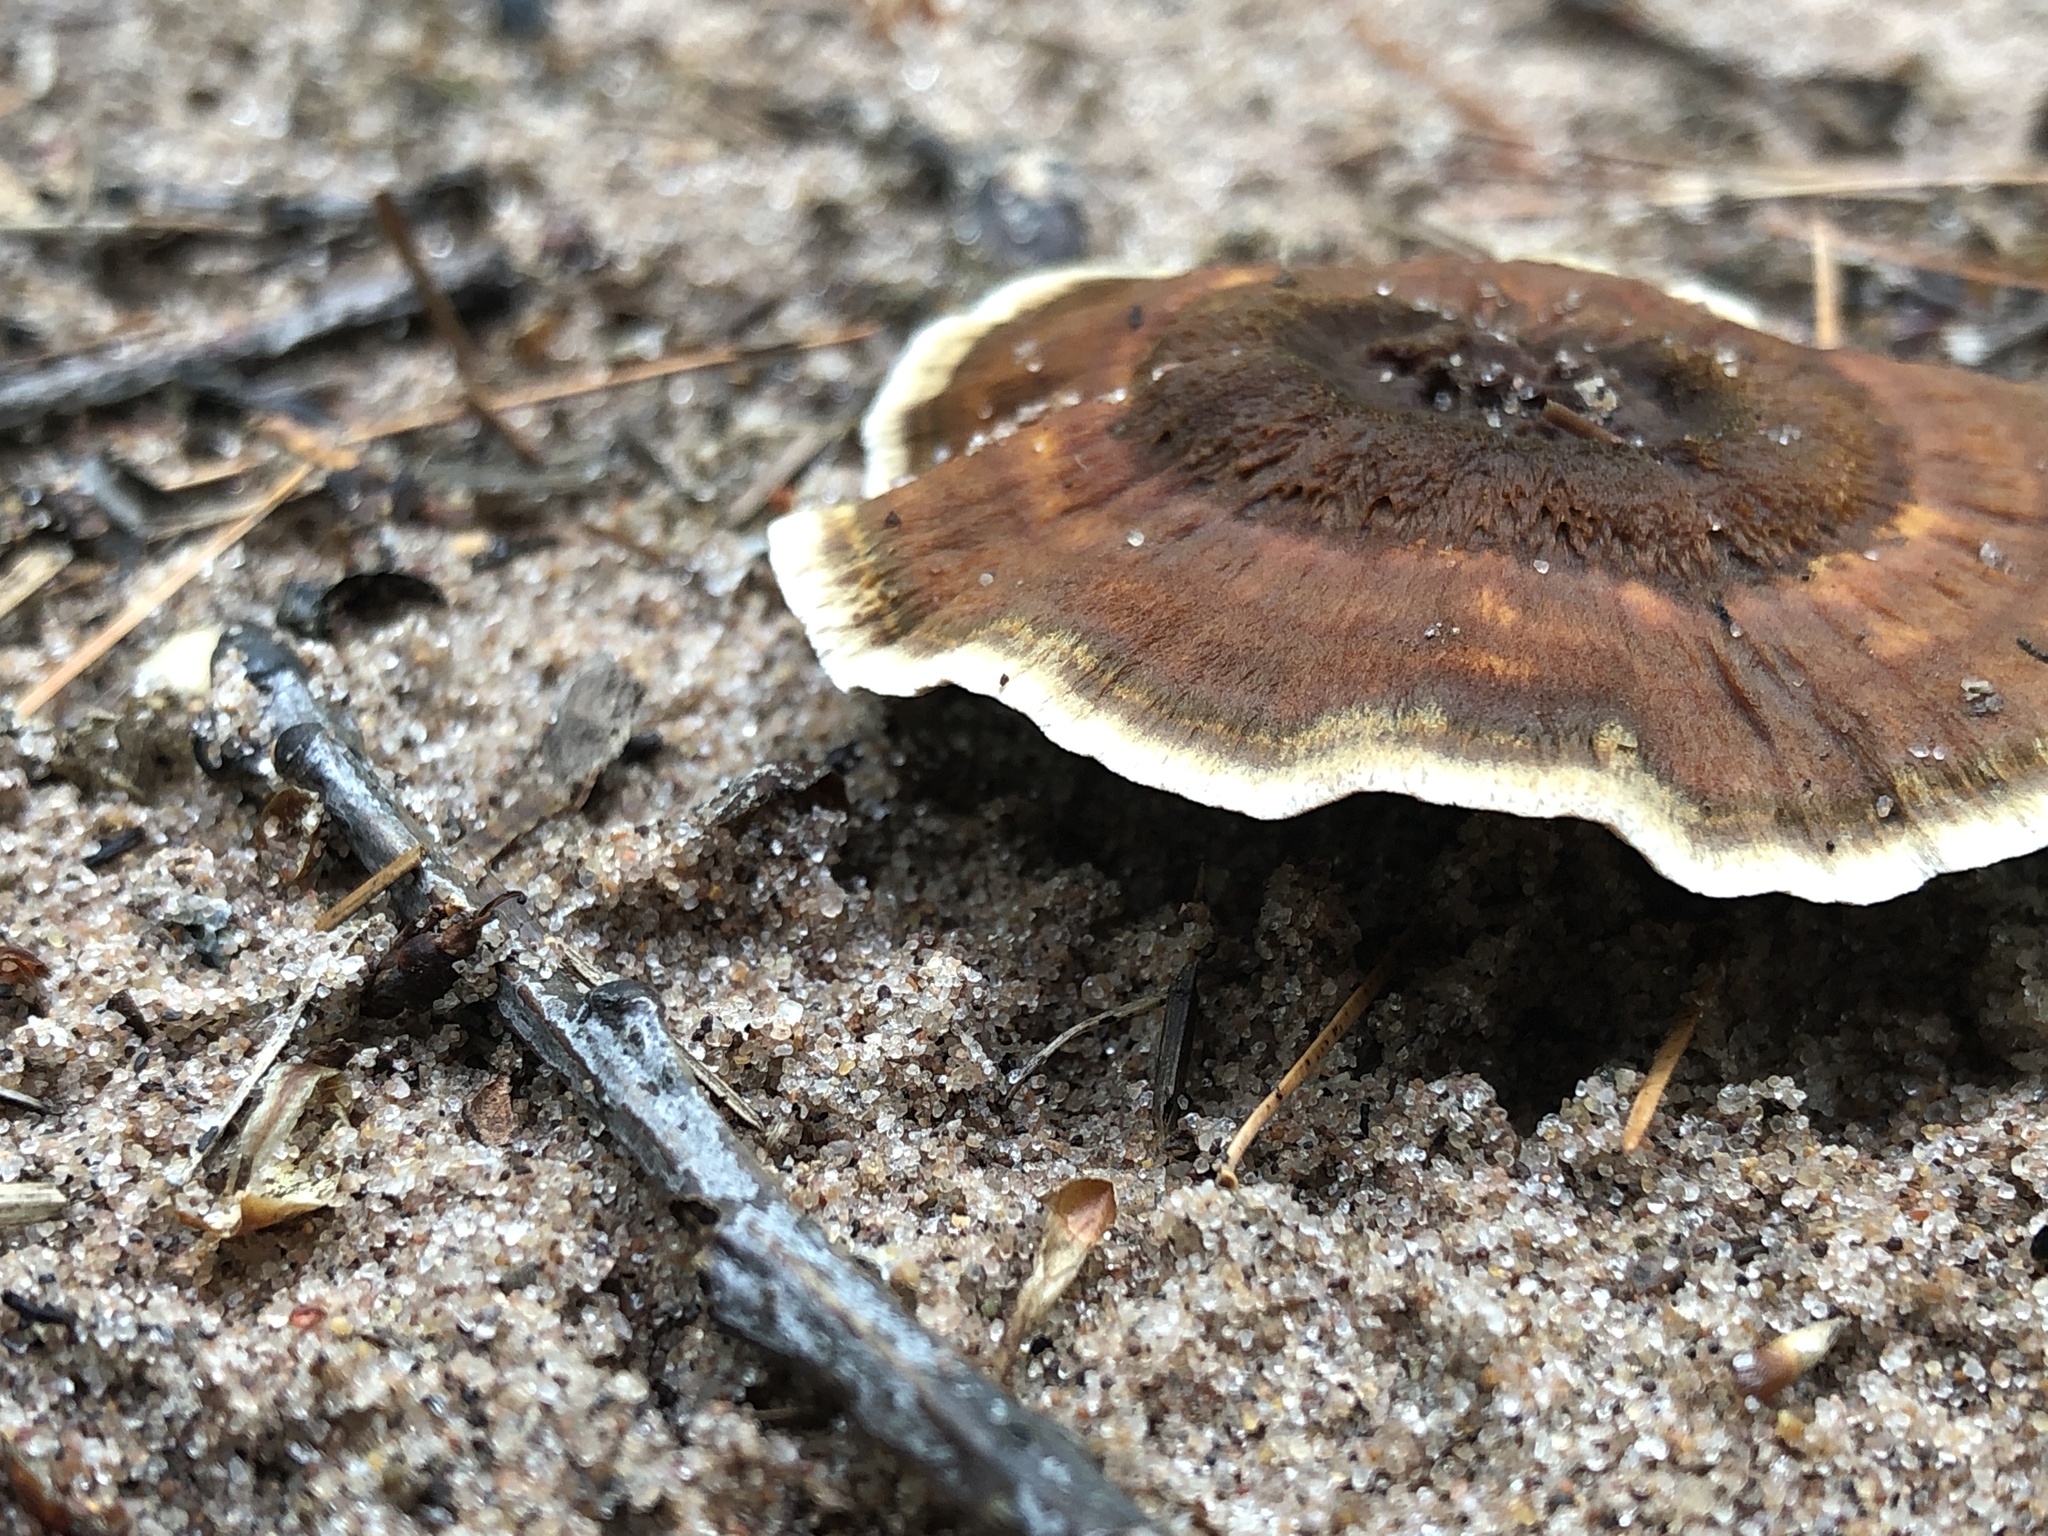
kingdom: Fungi
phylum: Basidiomycota
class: Agaricomycetes
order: Hymenochaetales
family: Hymenochaetaceae
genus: Coltricia
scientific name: Coltricia cinnamomea
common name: Shiny cinnamon polypore
